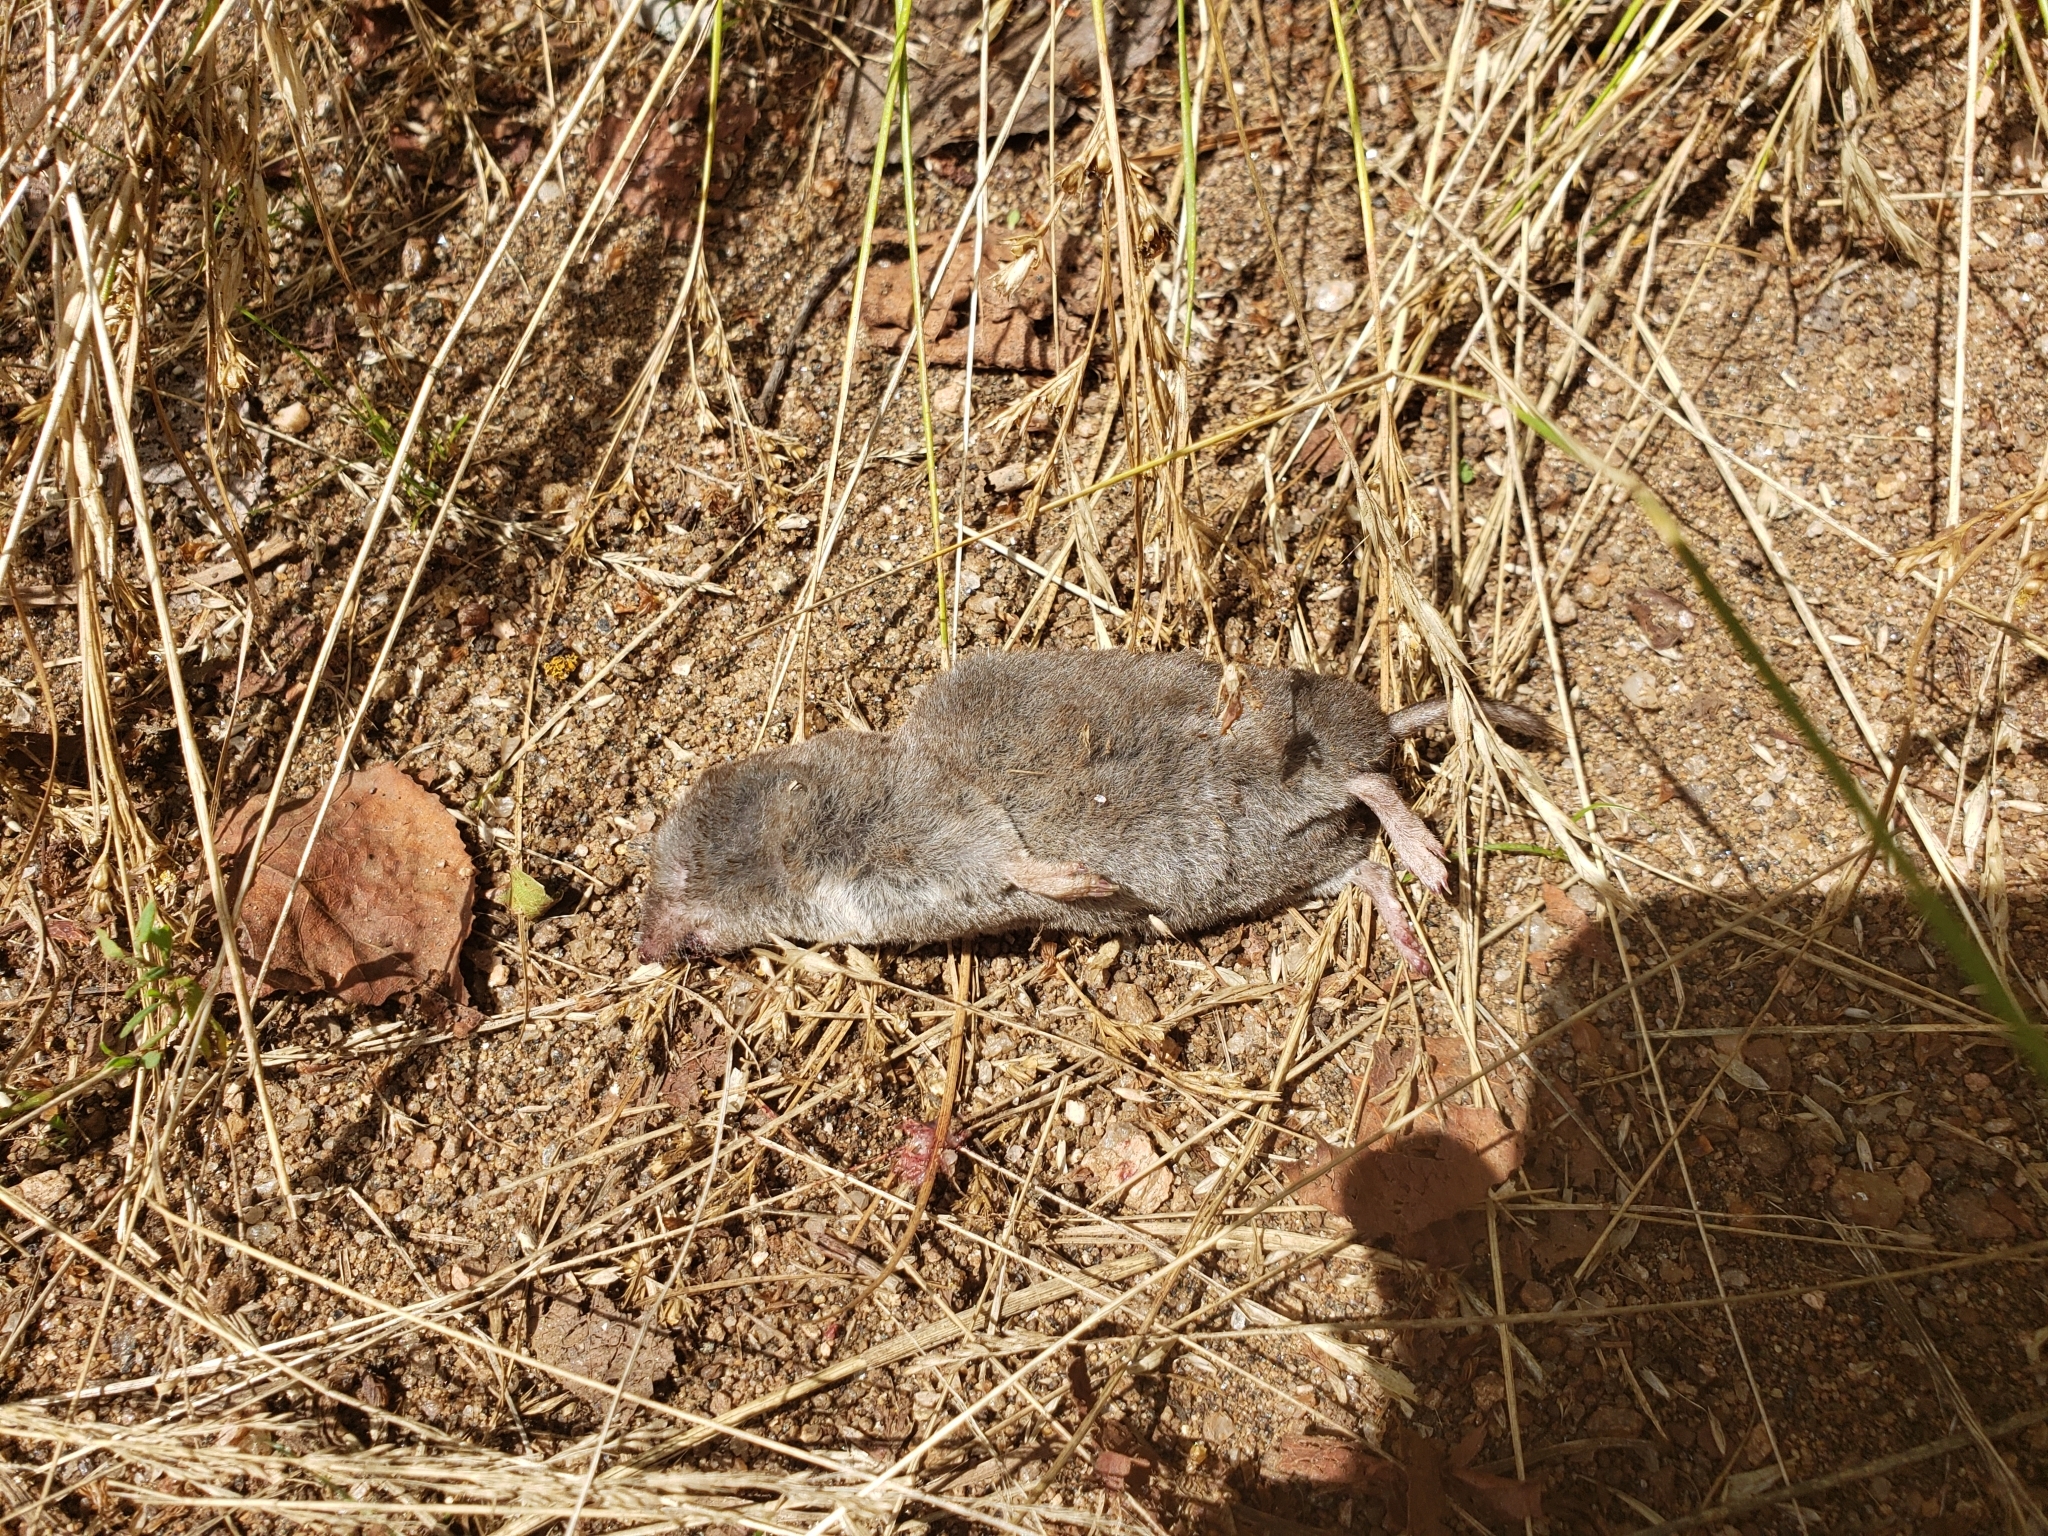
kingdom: Animalia
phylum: Chordata
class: Mammalia
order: Soricomorpha
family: Soricidae
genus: Blarina
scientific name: Blarina brevicauda
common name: Northern short-tailed shrew
